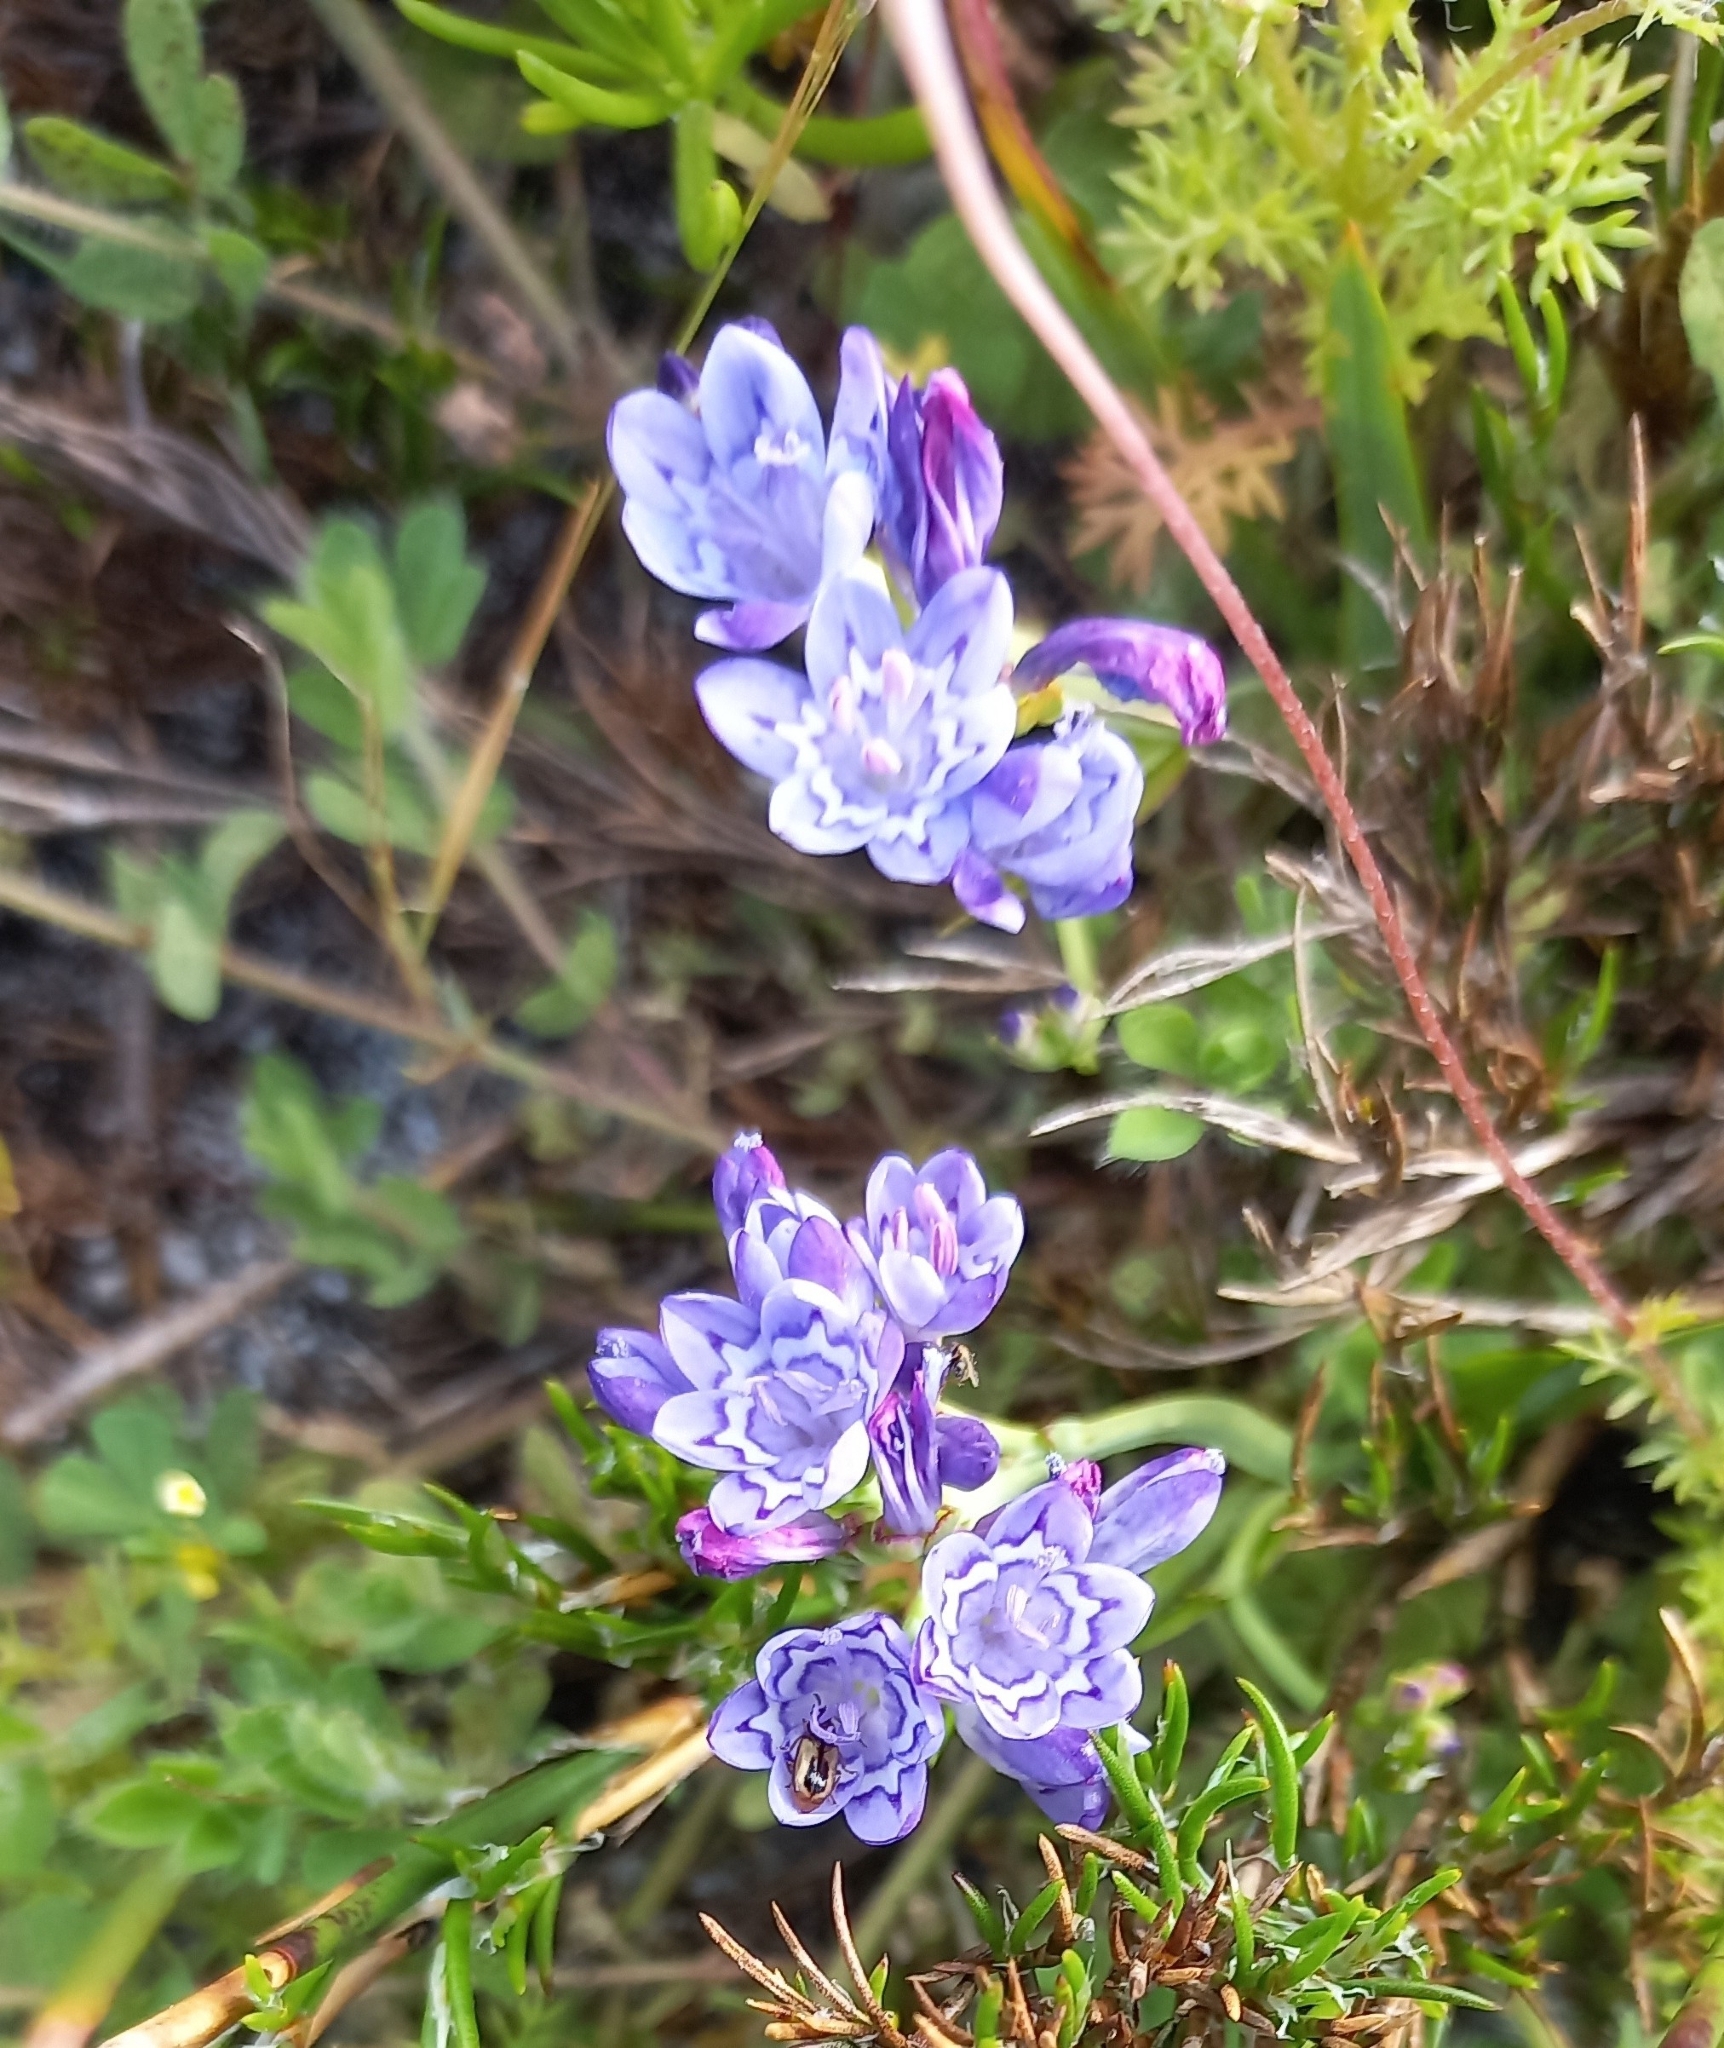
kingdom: Plantae
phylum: Tracheophyta
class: Liliopsida
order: Asparagales
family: Iridaceae
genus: Codonorhiza
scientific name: Codonorhiza corymbosa
